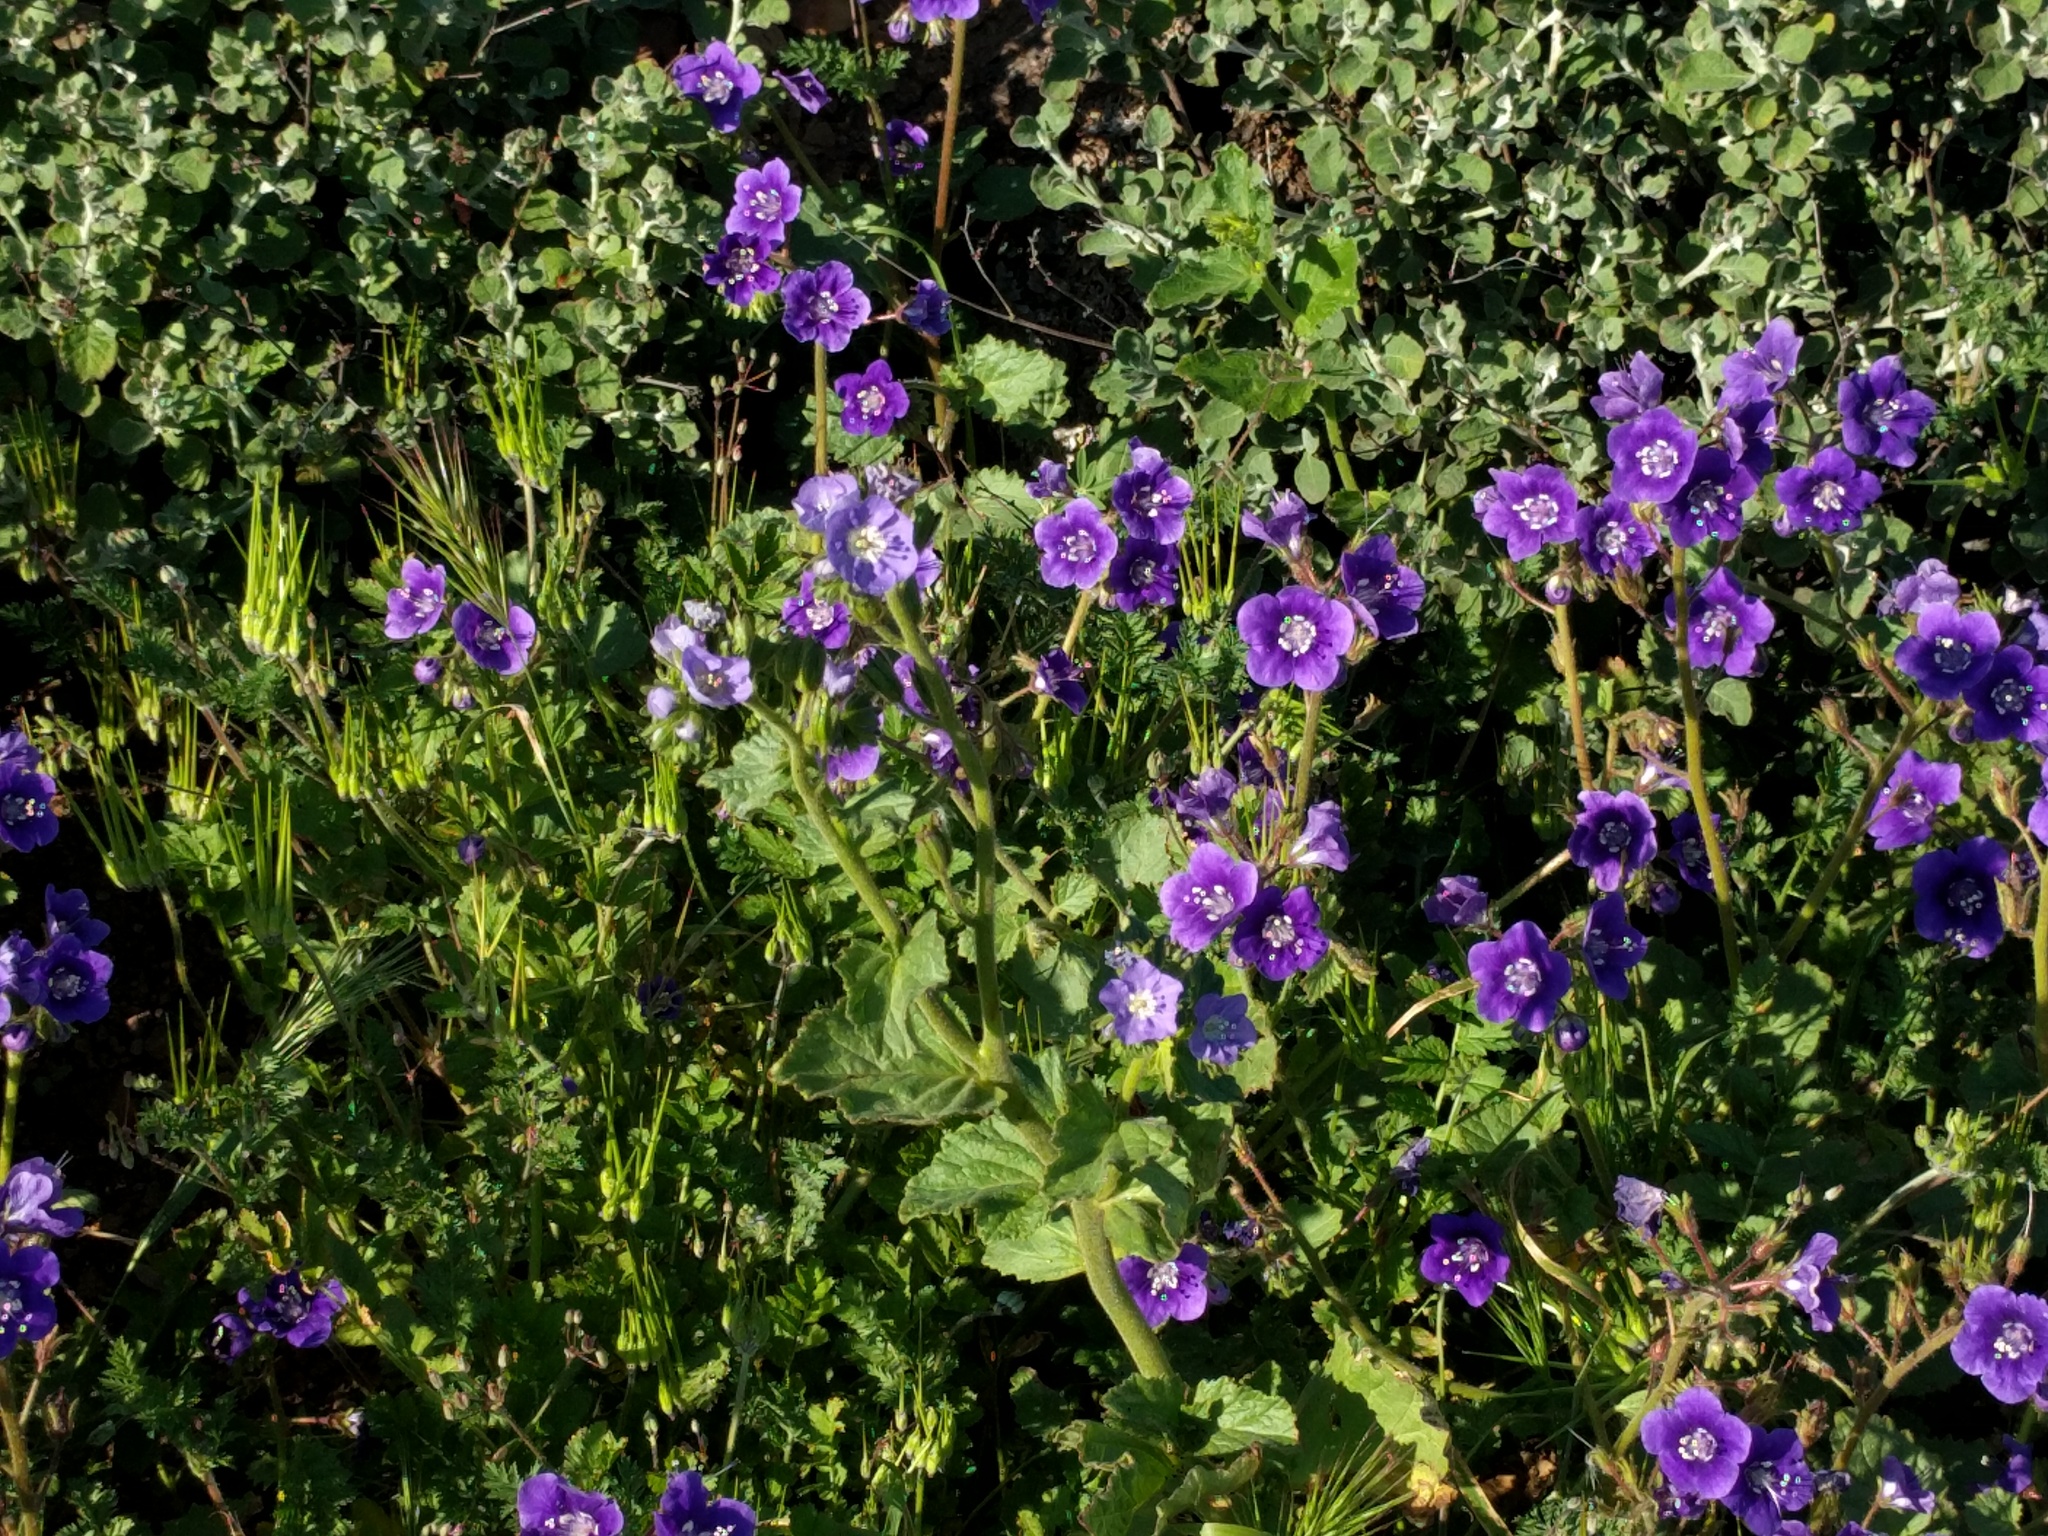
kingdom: Plantae
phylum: Tracheophyta
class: Magnoliopsida
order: Boraginales
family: Hydrophyllaceae
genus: Phacelia
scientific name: Phacelia parryi
